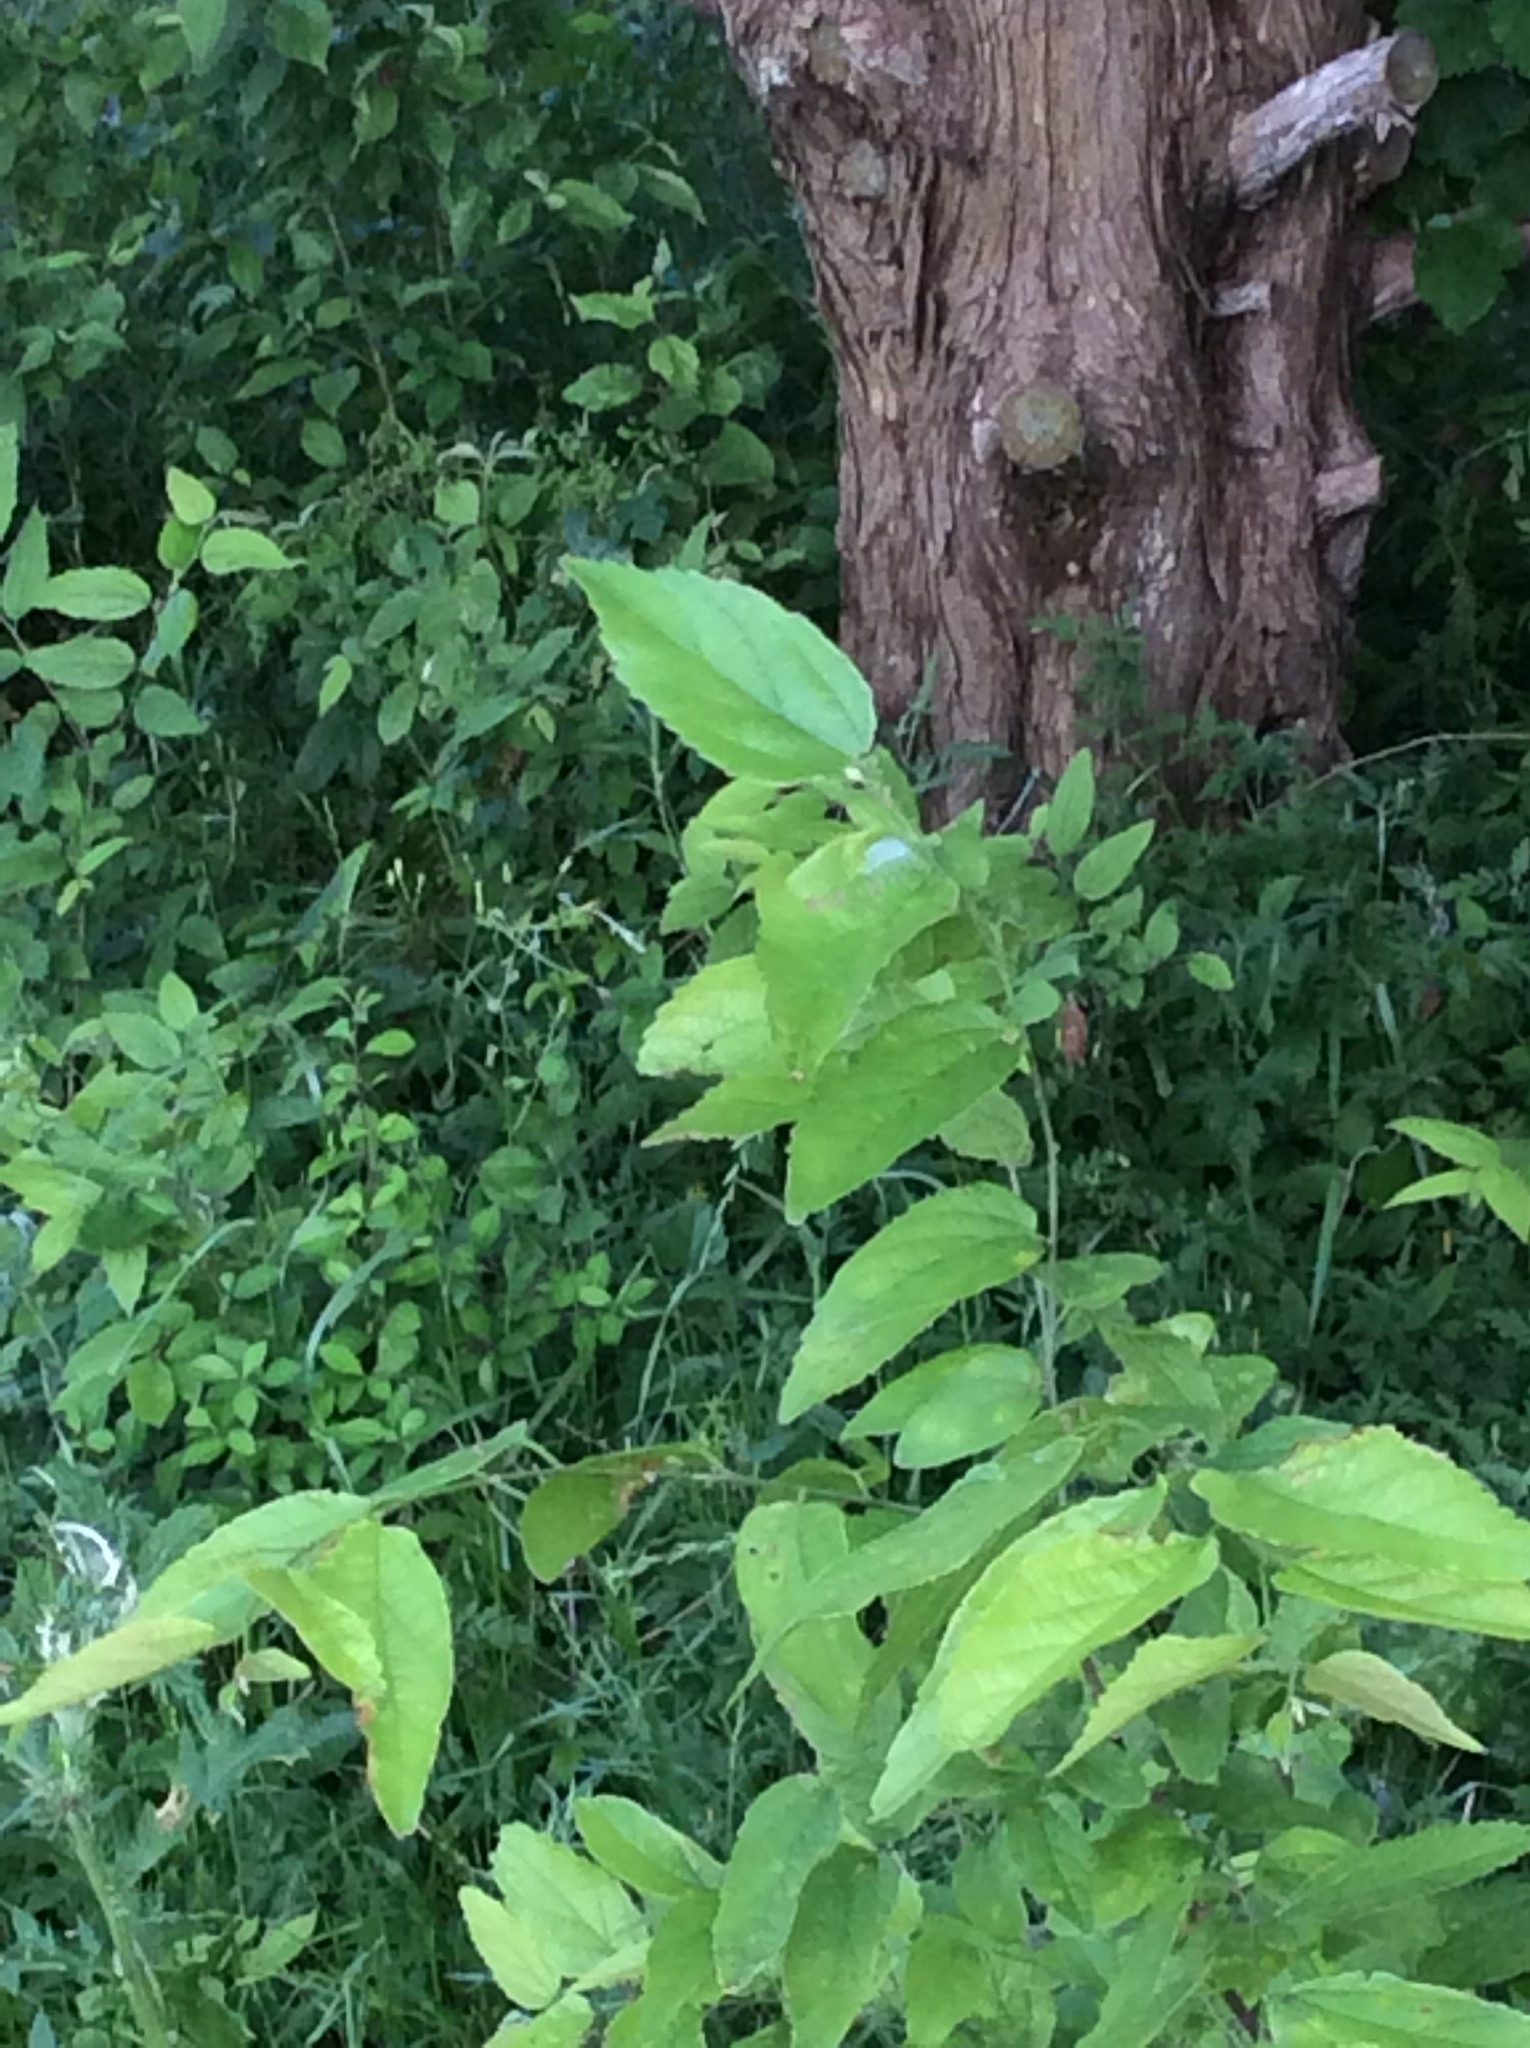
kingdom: Plantae
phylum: Tracheophyta
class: Magnoliopsida
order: Rosales
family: Cannabaceae
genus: Celtis
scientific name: Celtis laevigata
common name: Sugarberry
